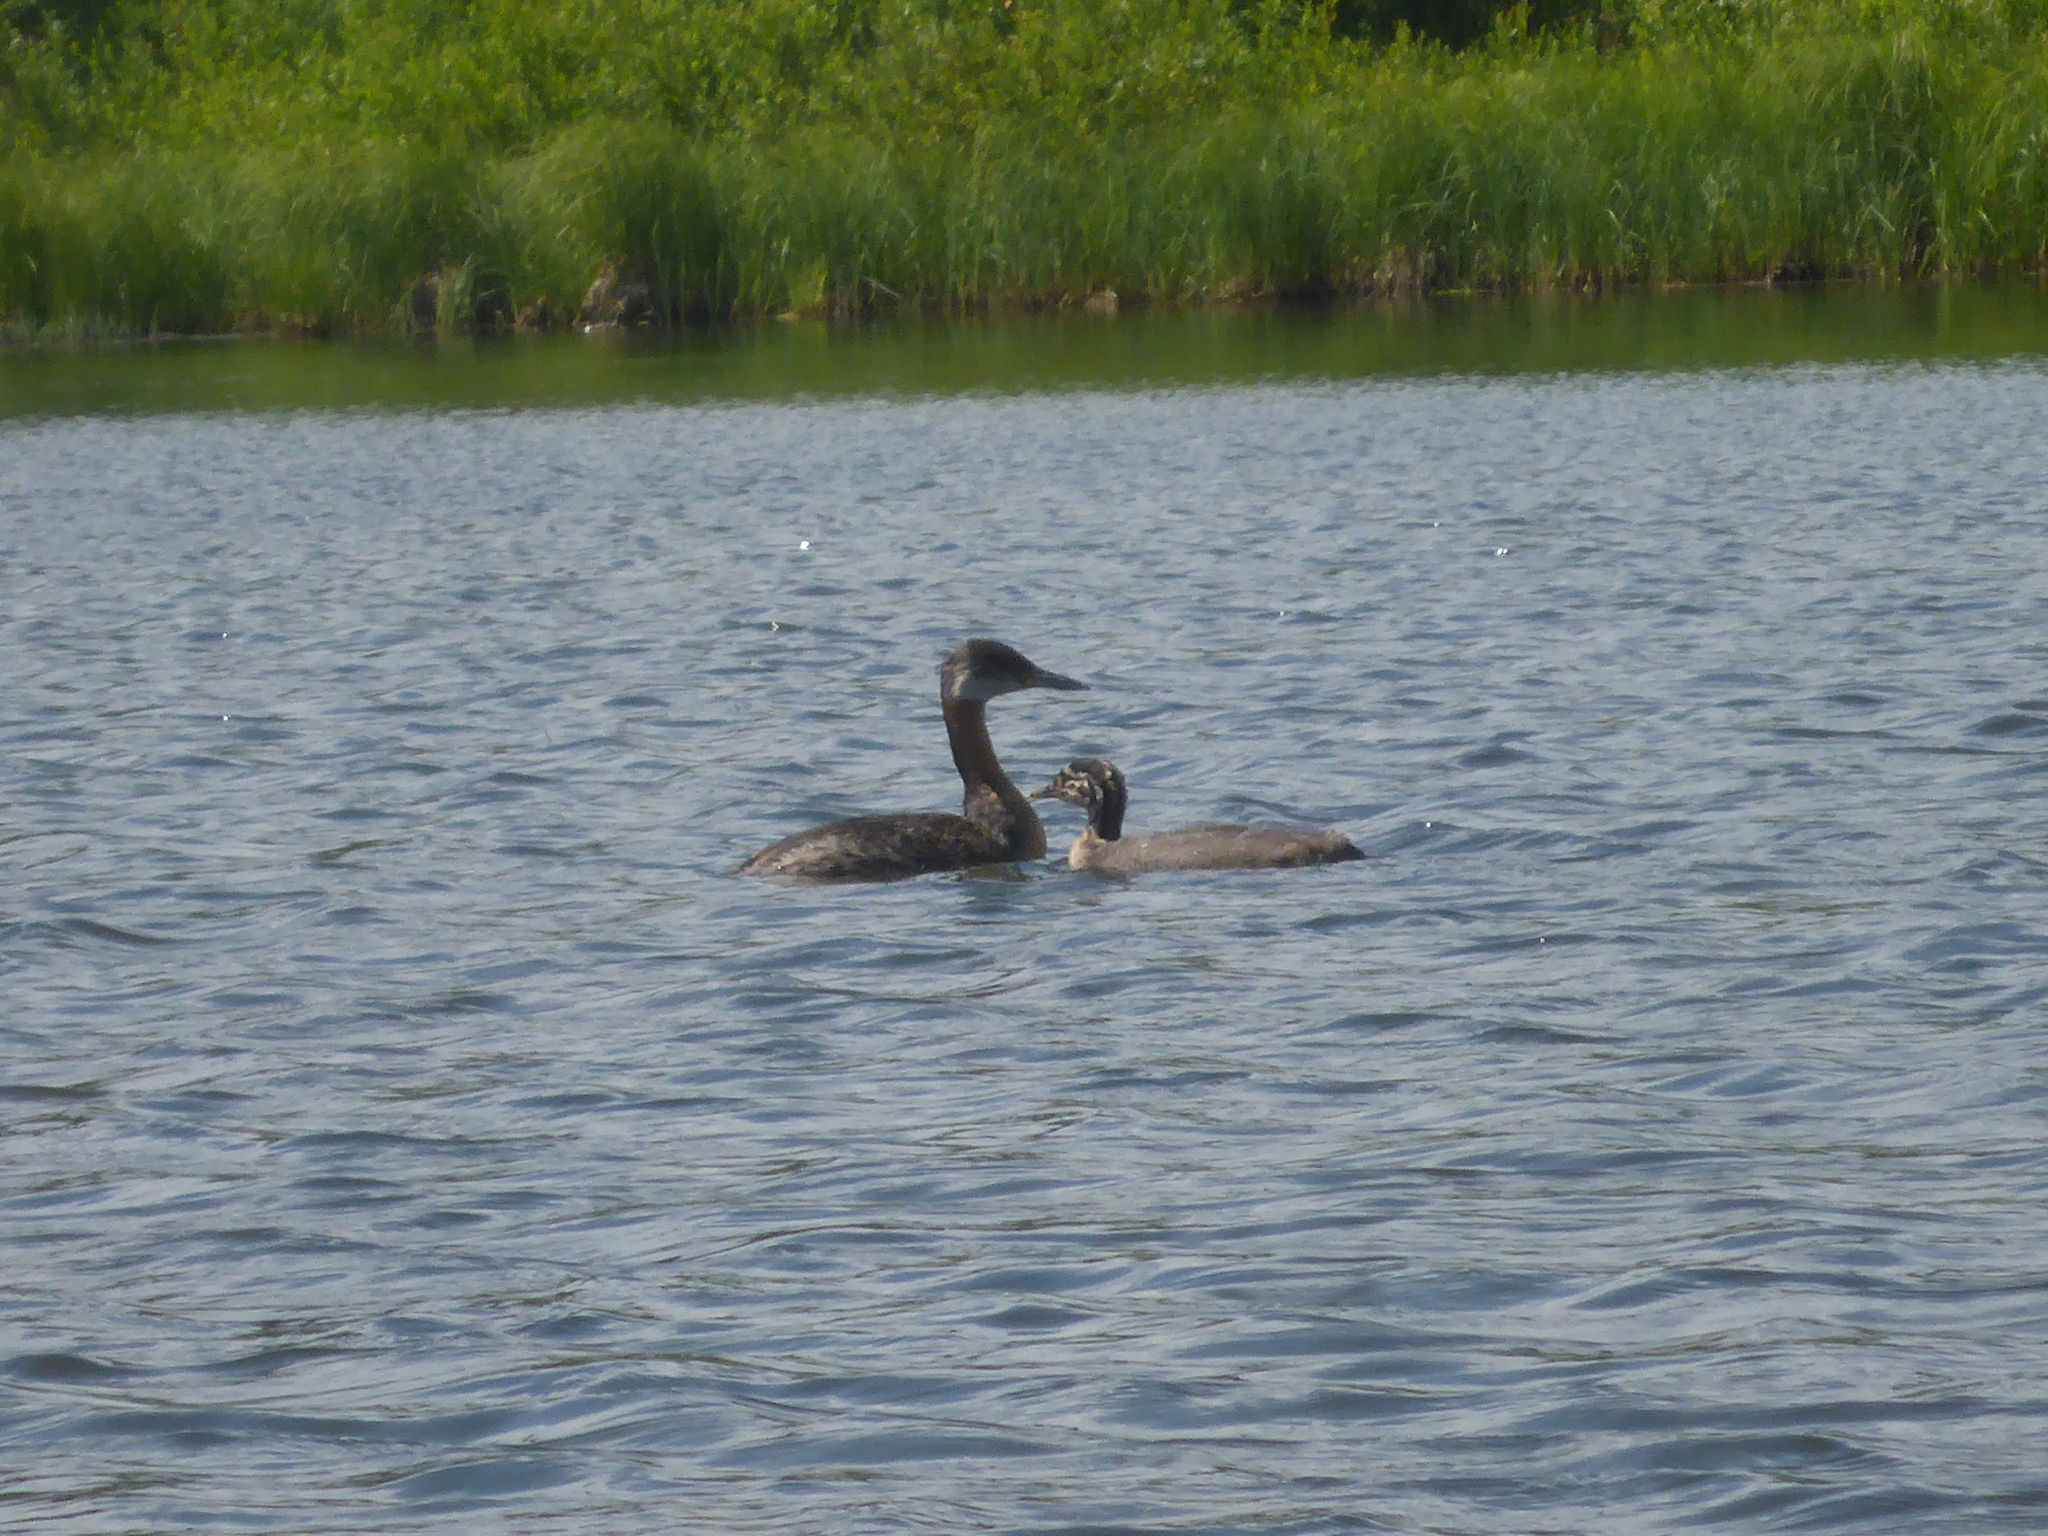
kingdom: Animalia
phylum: Chordata
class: Aves
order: Podicipediformes
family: Podicipedidae
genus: Podiceps
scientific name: Podiceps grisegena
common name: Red-necked grebe
